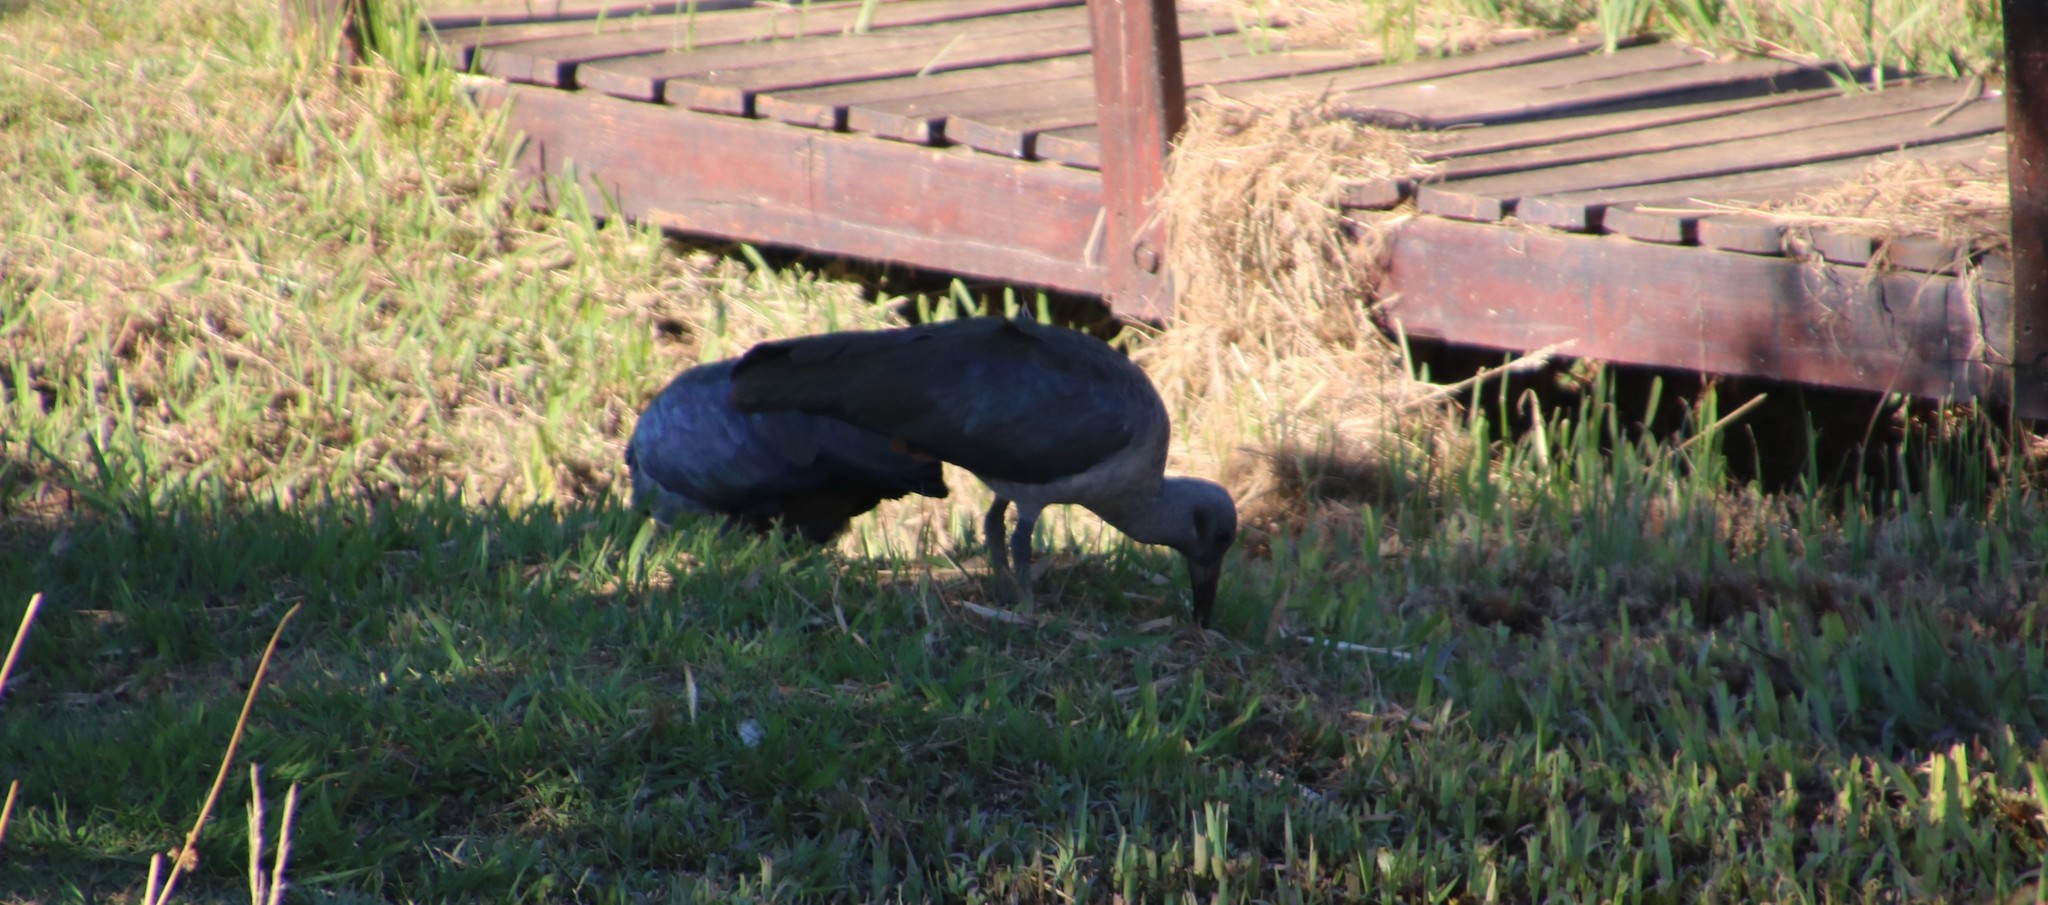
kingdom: Animalia
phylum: Chordata
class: Aves
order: Pelecaniformes
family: Threskiornithidae
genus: Bostrychia
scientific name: Bostrychia hagedash
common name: Hadada ibis
